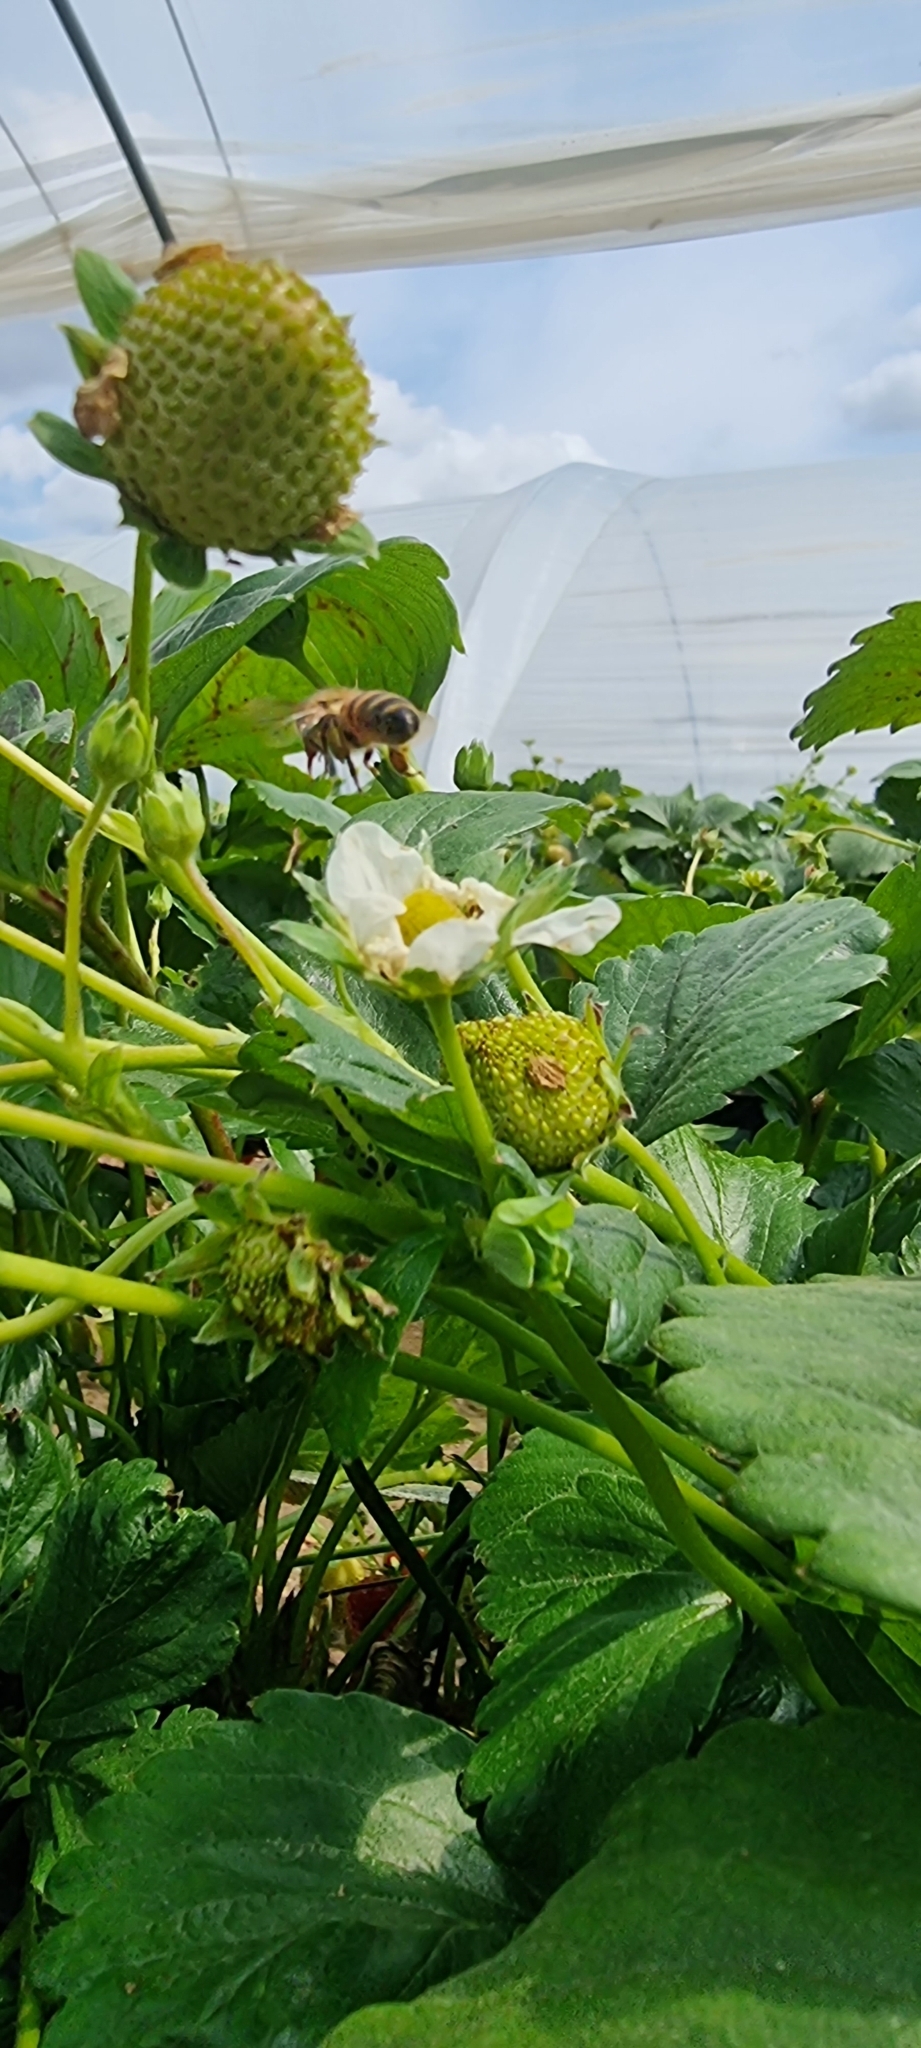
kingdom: Animalia
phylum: Arthropoda
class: Insecta
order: Hymenoptera
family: Apidae
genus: Apis
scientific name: Apis mellifera
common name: Honey bee
